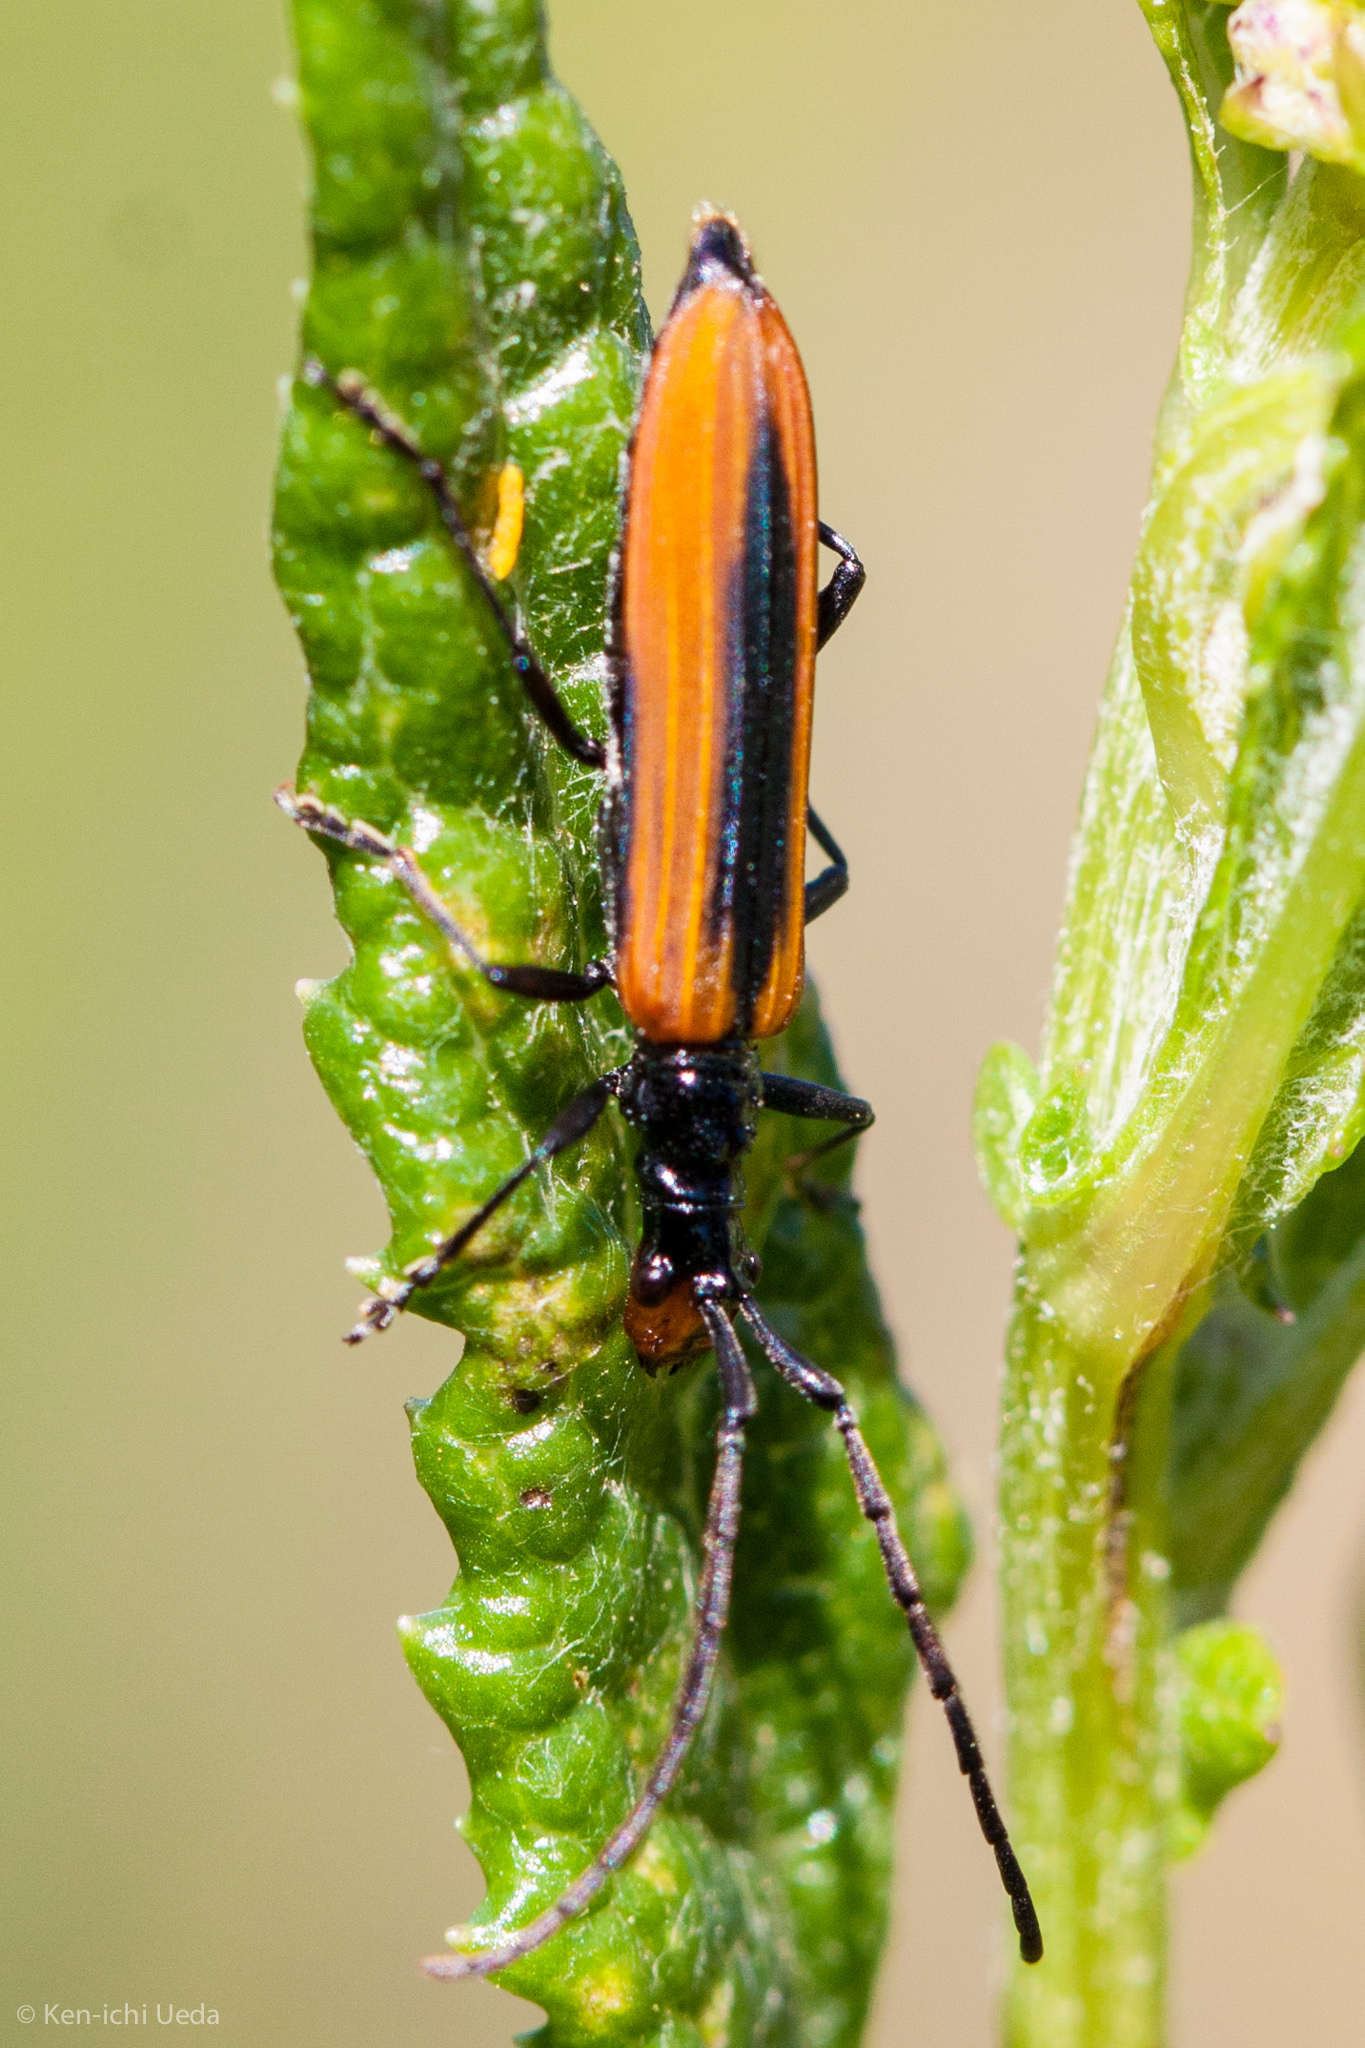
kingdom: Animalia
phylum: Arthropoda
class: Insecta
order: Coleoptera
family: Cerambycidae
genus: Stenoderus
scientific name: Stenoderus suturalis
